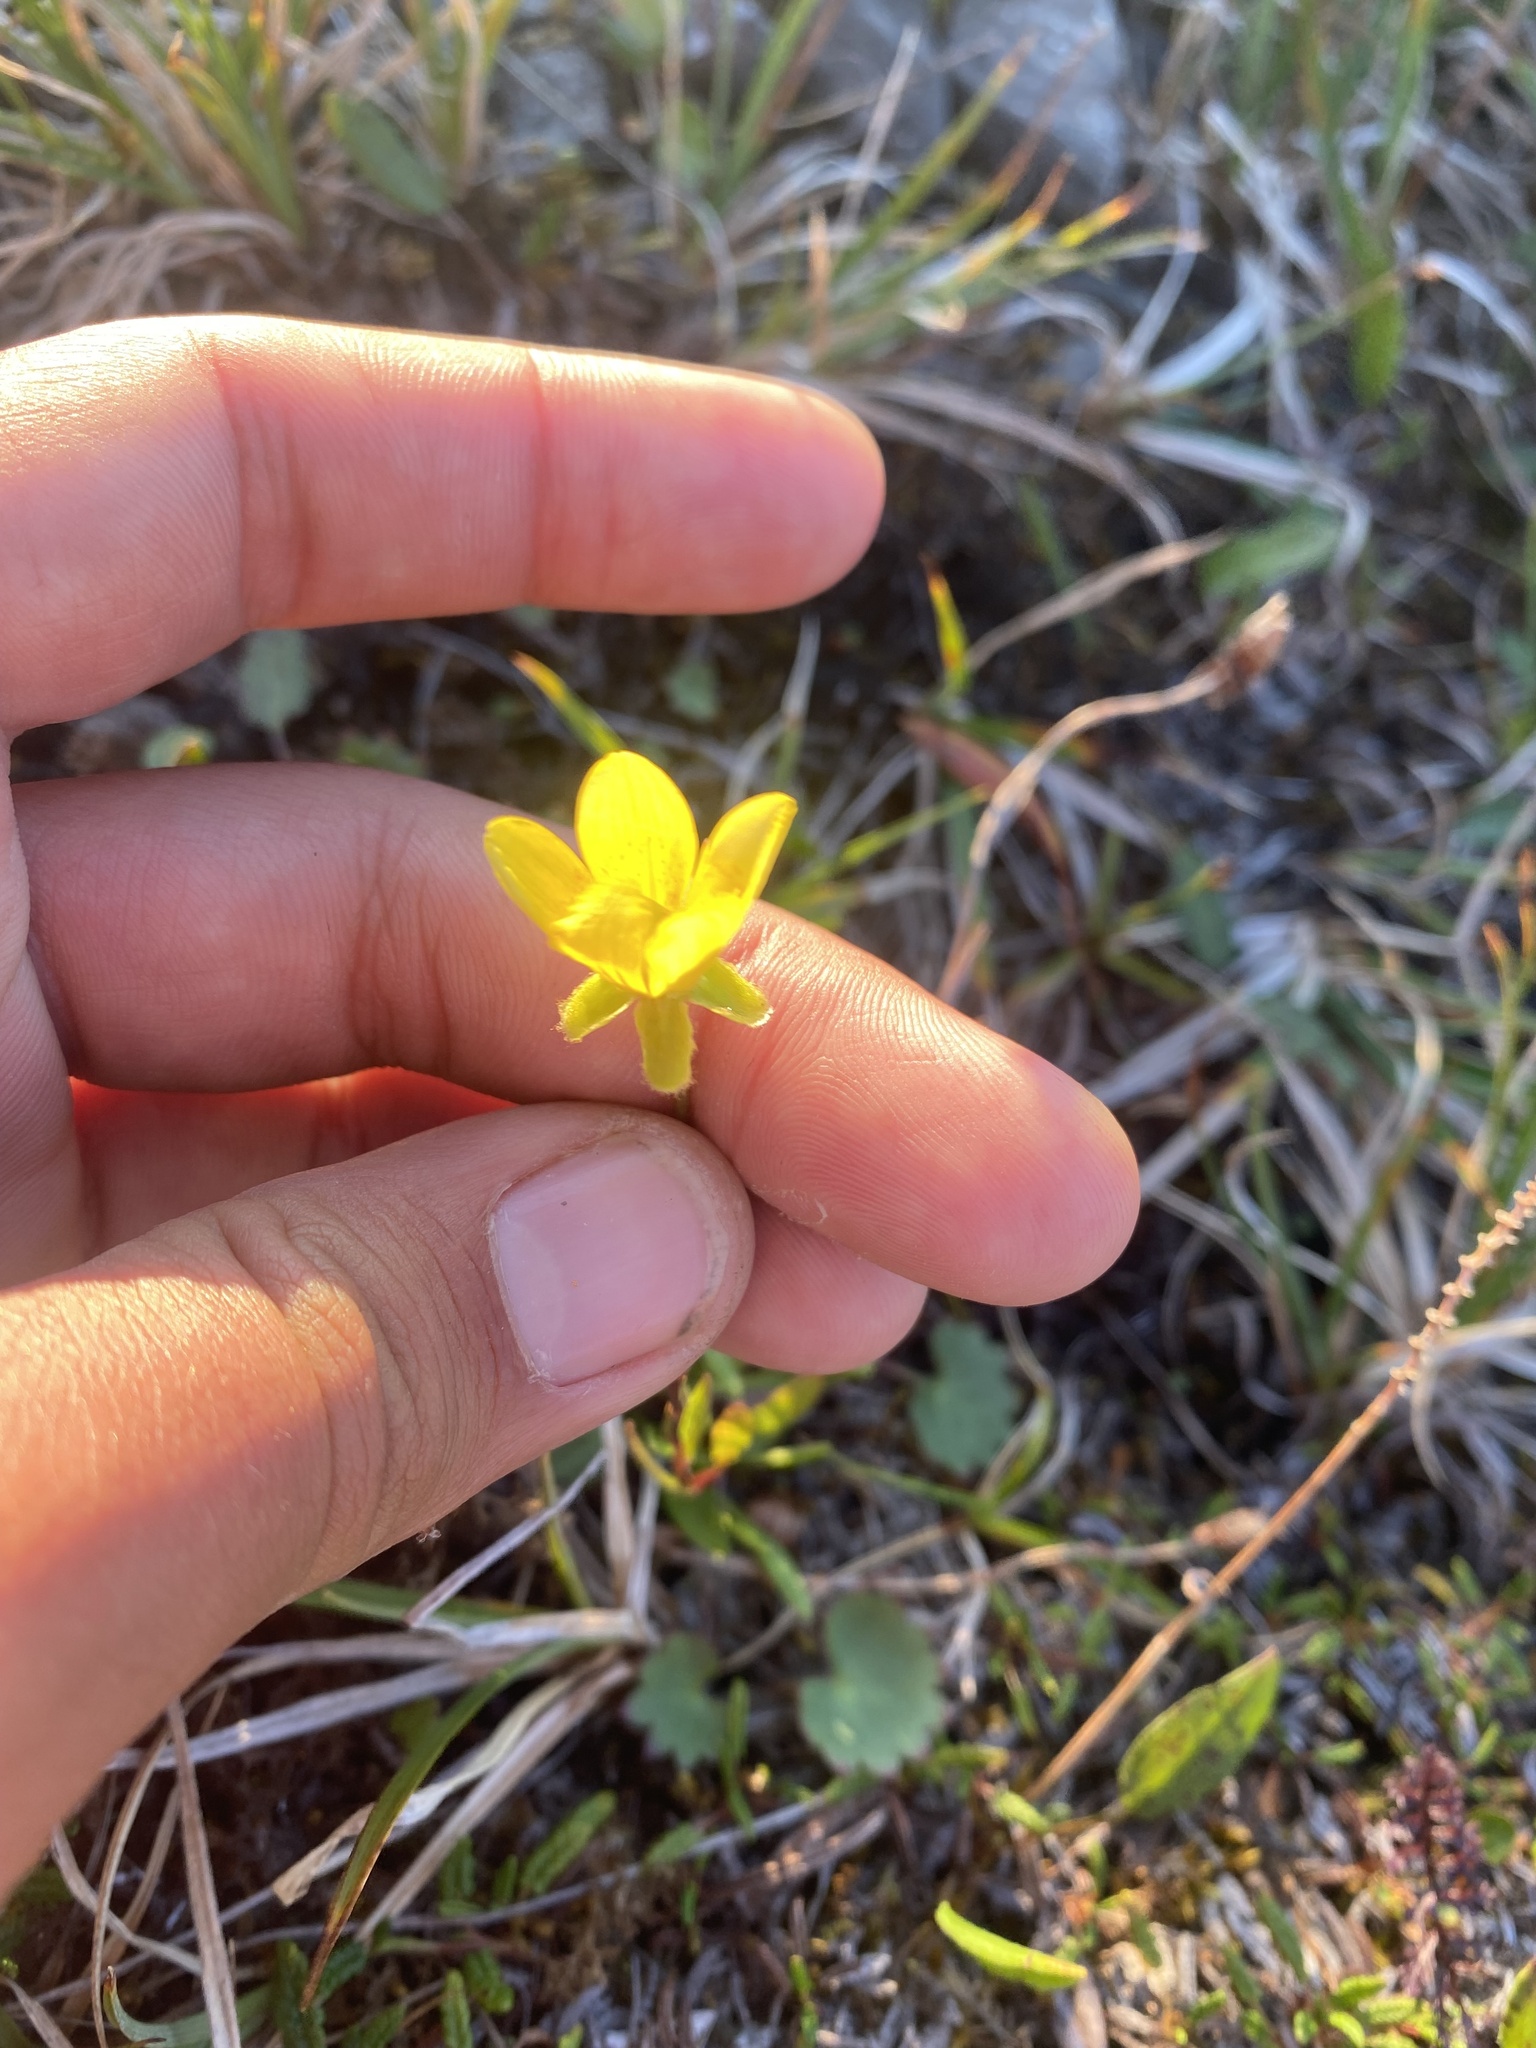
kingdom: Plantae
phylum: Tracheophyta
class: Magnoliopsida
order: Saxifragales
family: Saxifragaceae
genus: Saxifraga
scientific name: Saxifraga hirculus
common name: Yellow marsh saxifrage
